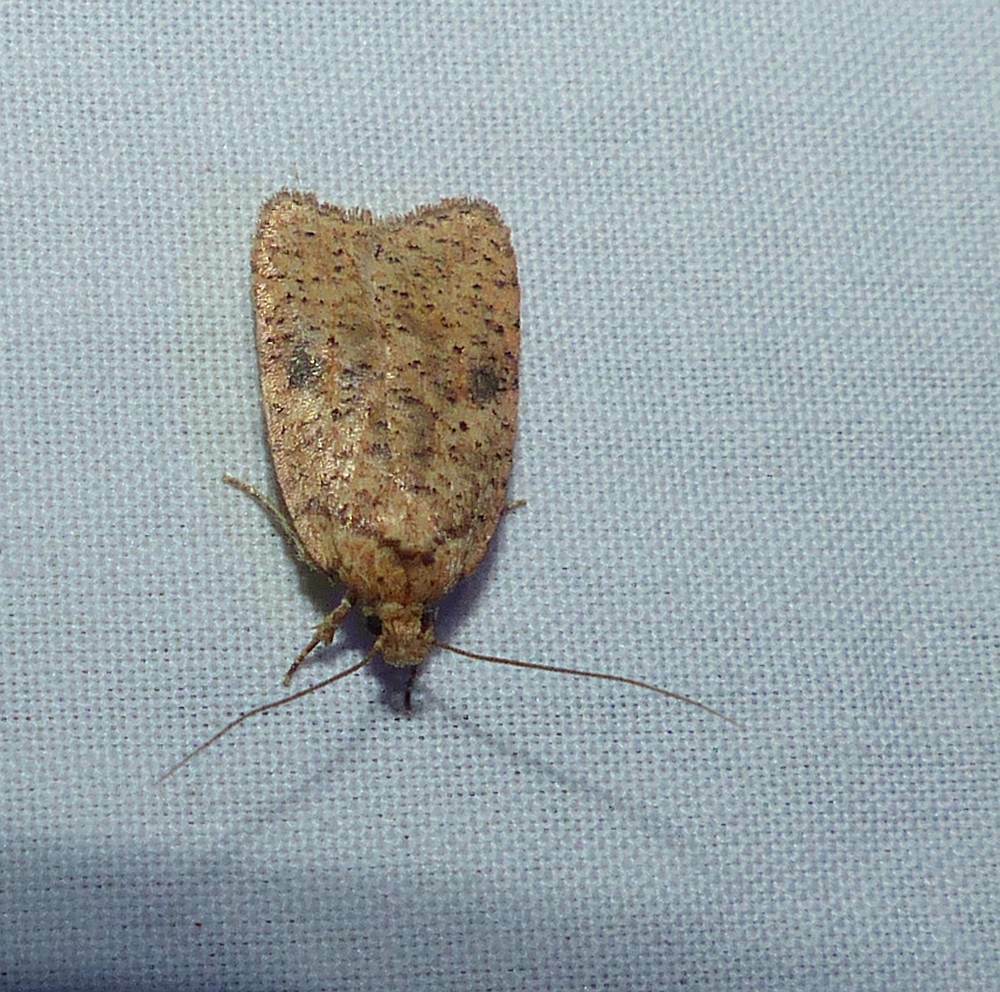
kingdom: Animalia
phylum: Arthropoda
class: Insecta
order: Lepidoptera
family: Depressariidae
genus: Agonopterix
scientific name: Agonopterix thelmae
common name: Thelma's agonopterix moth
